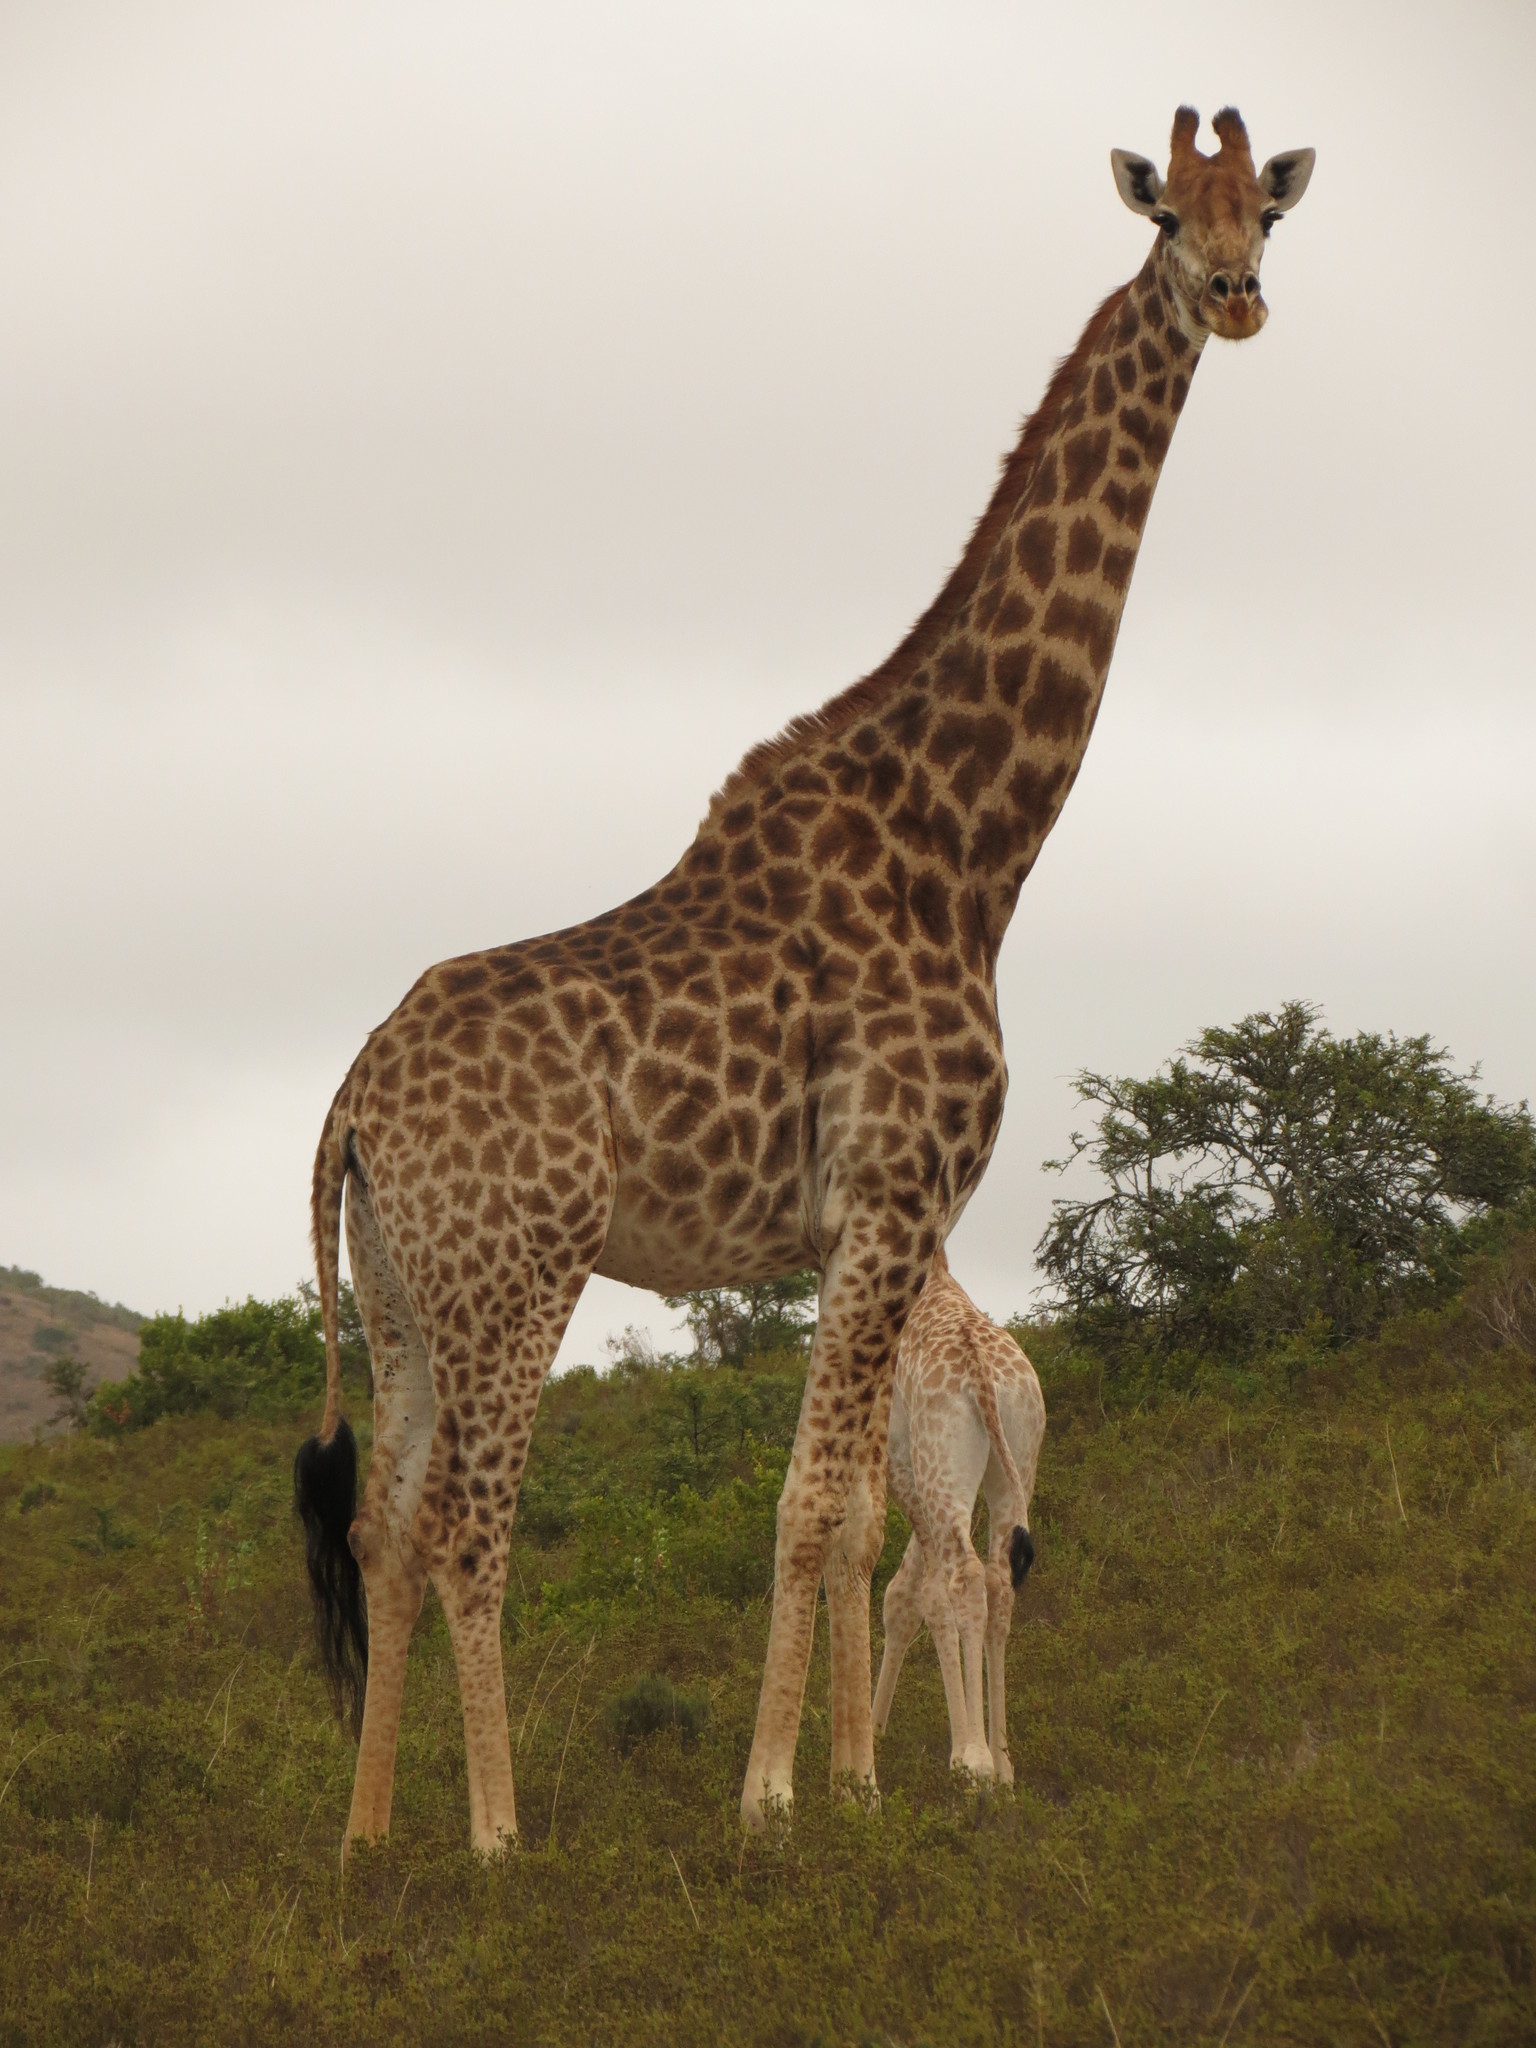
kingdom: Animalia
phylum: Chordata
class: Mammalia
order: Artiodactyla
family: Giraffidae
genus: Giraffa
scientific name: Giraffa giraffa
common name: Southern giraffe
